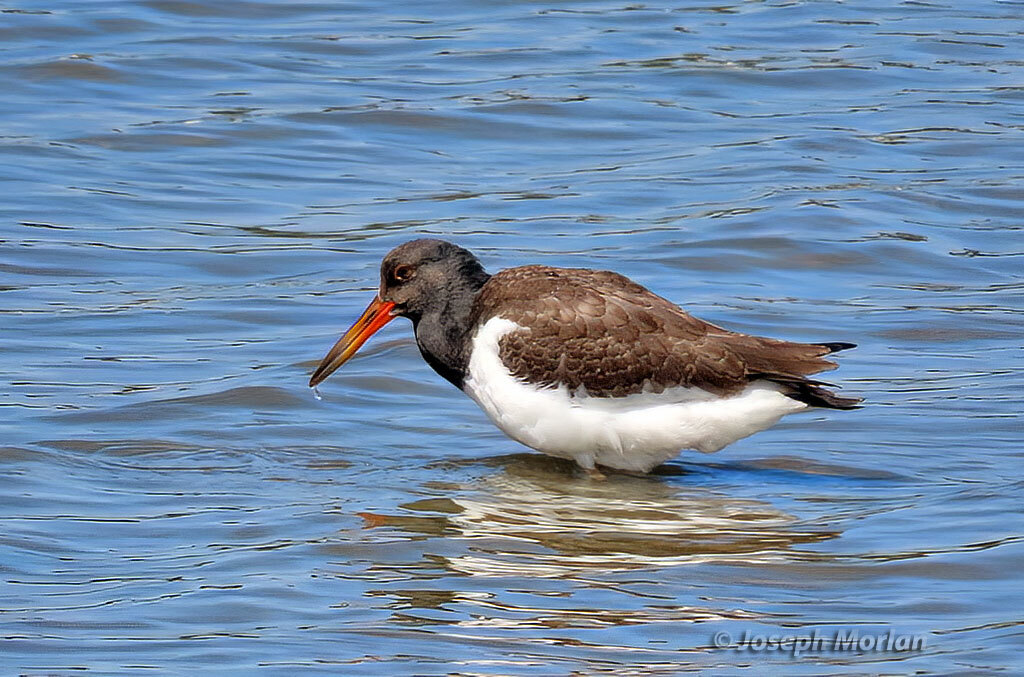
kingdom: Animalia
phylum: Chordata
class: Aves
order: Charadriiformes
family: Haematopodidae
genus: Haematopus
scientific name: Haematopus palliatus
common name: American oystercatcher
